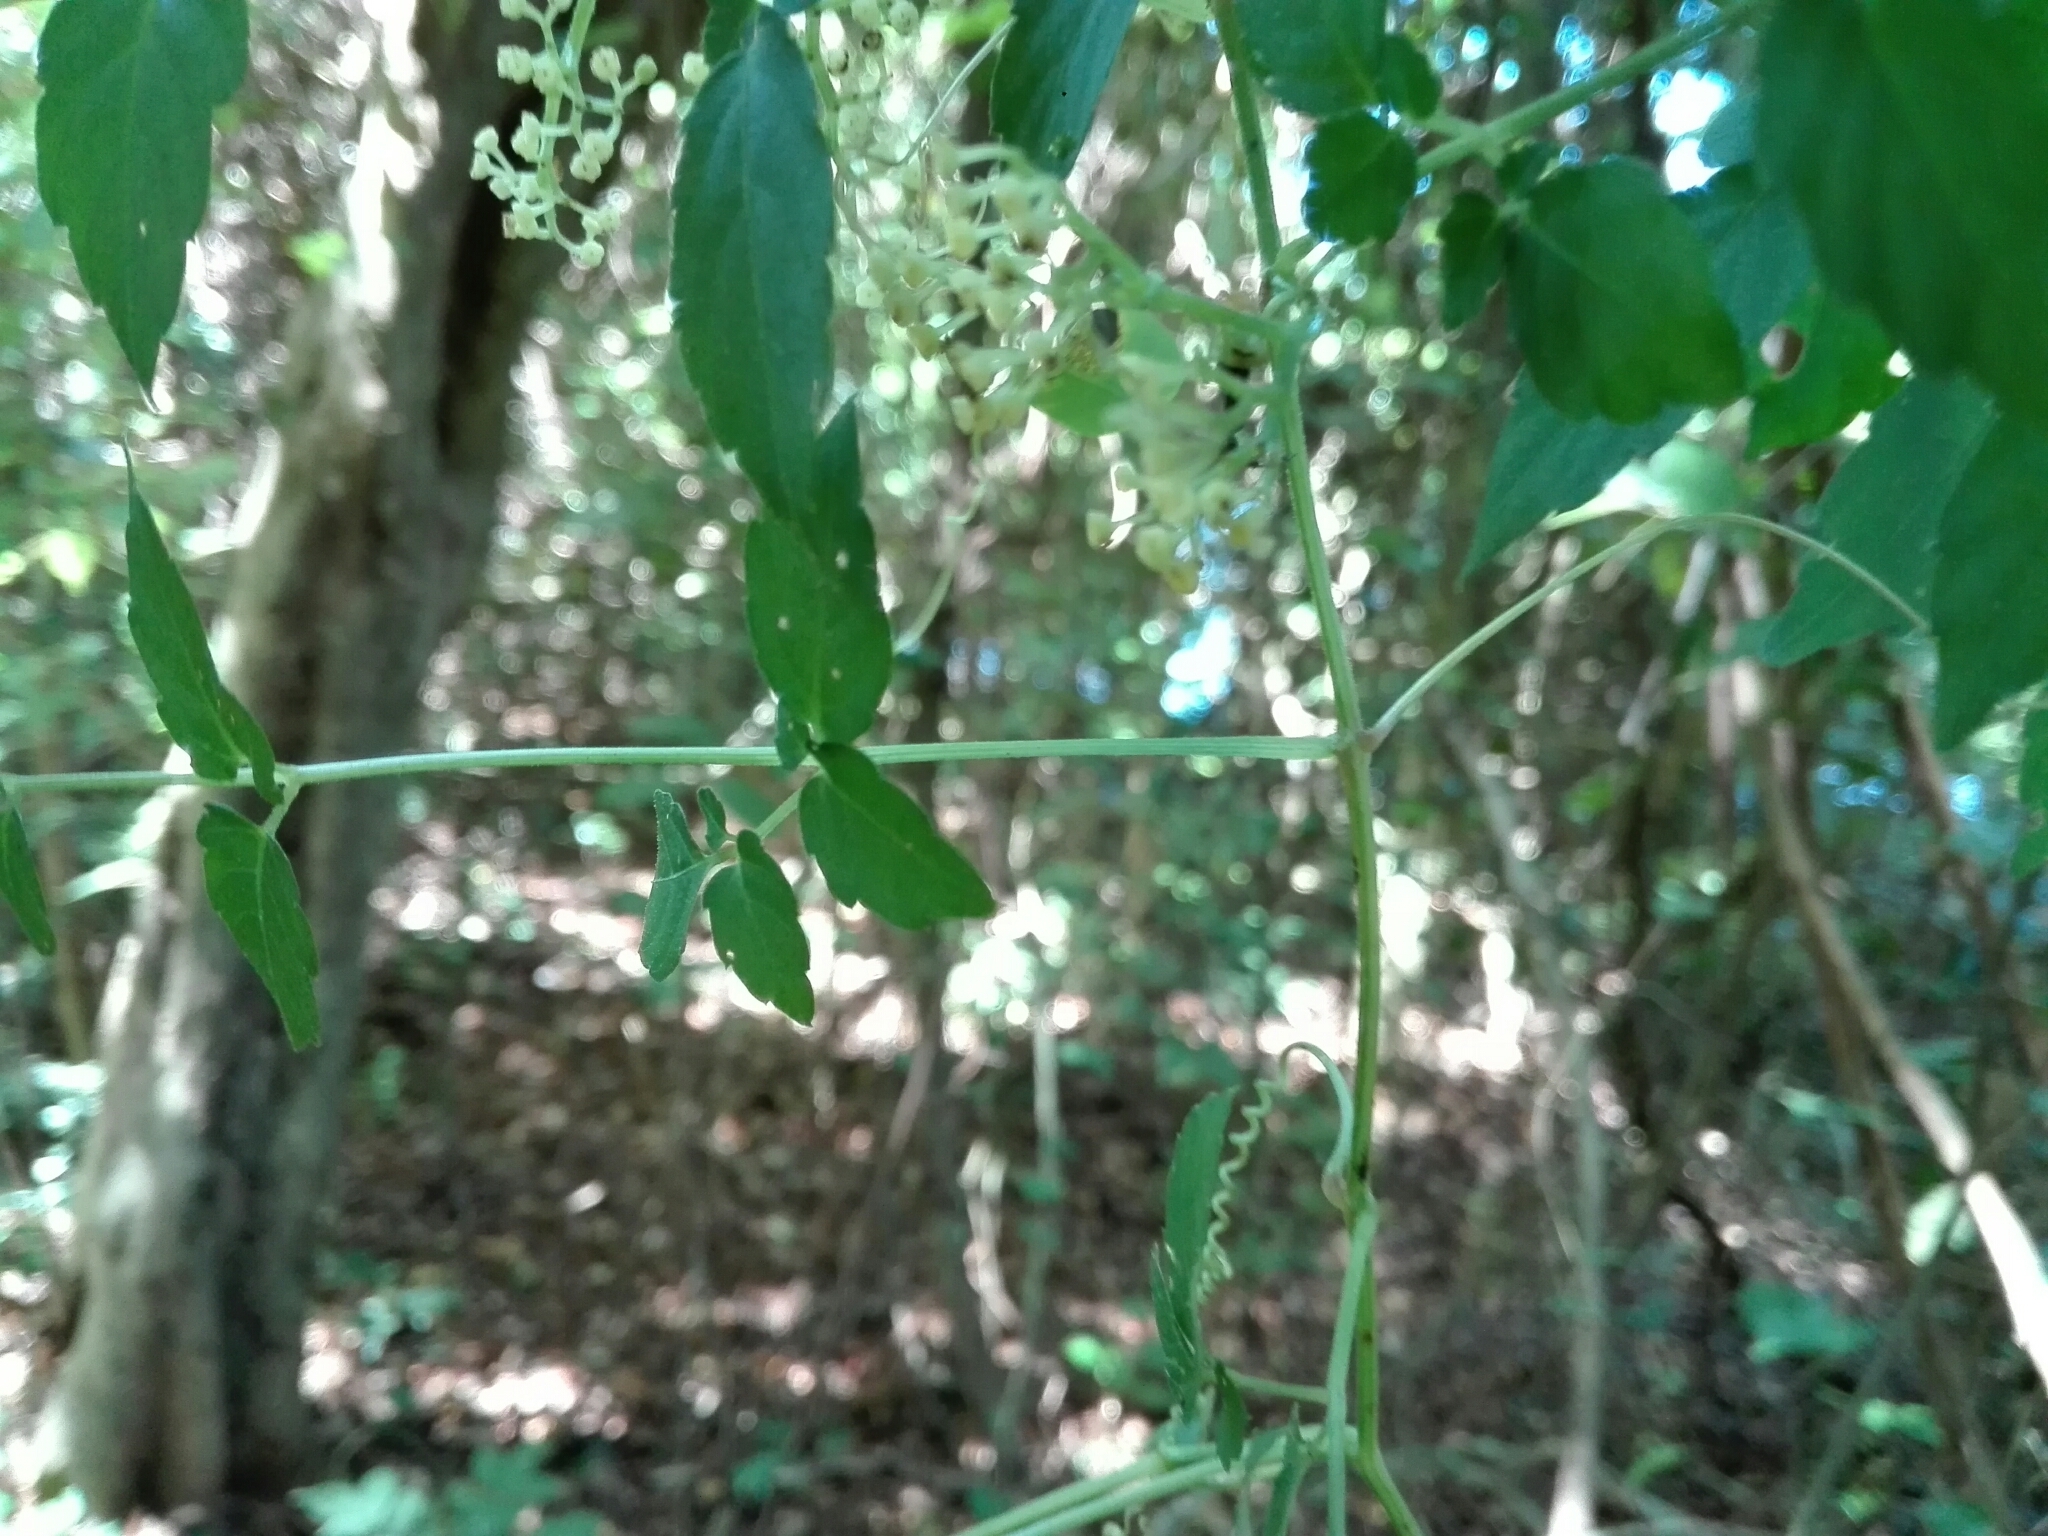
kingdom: Plantae
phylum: Tracheophyta
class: Magnoliopsida
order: Vitales
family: Vitaceae
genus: Afrocayratia
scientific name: Afrocayratia triternata
